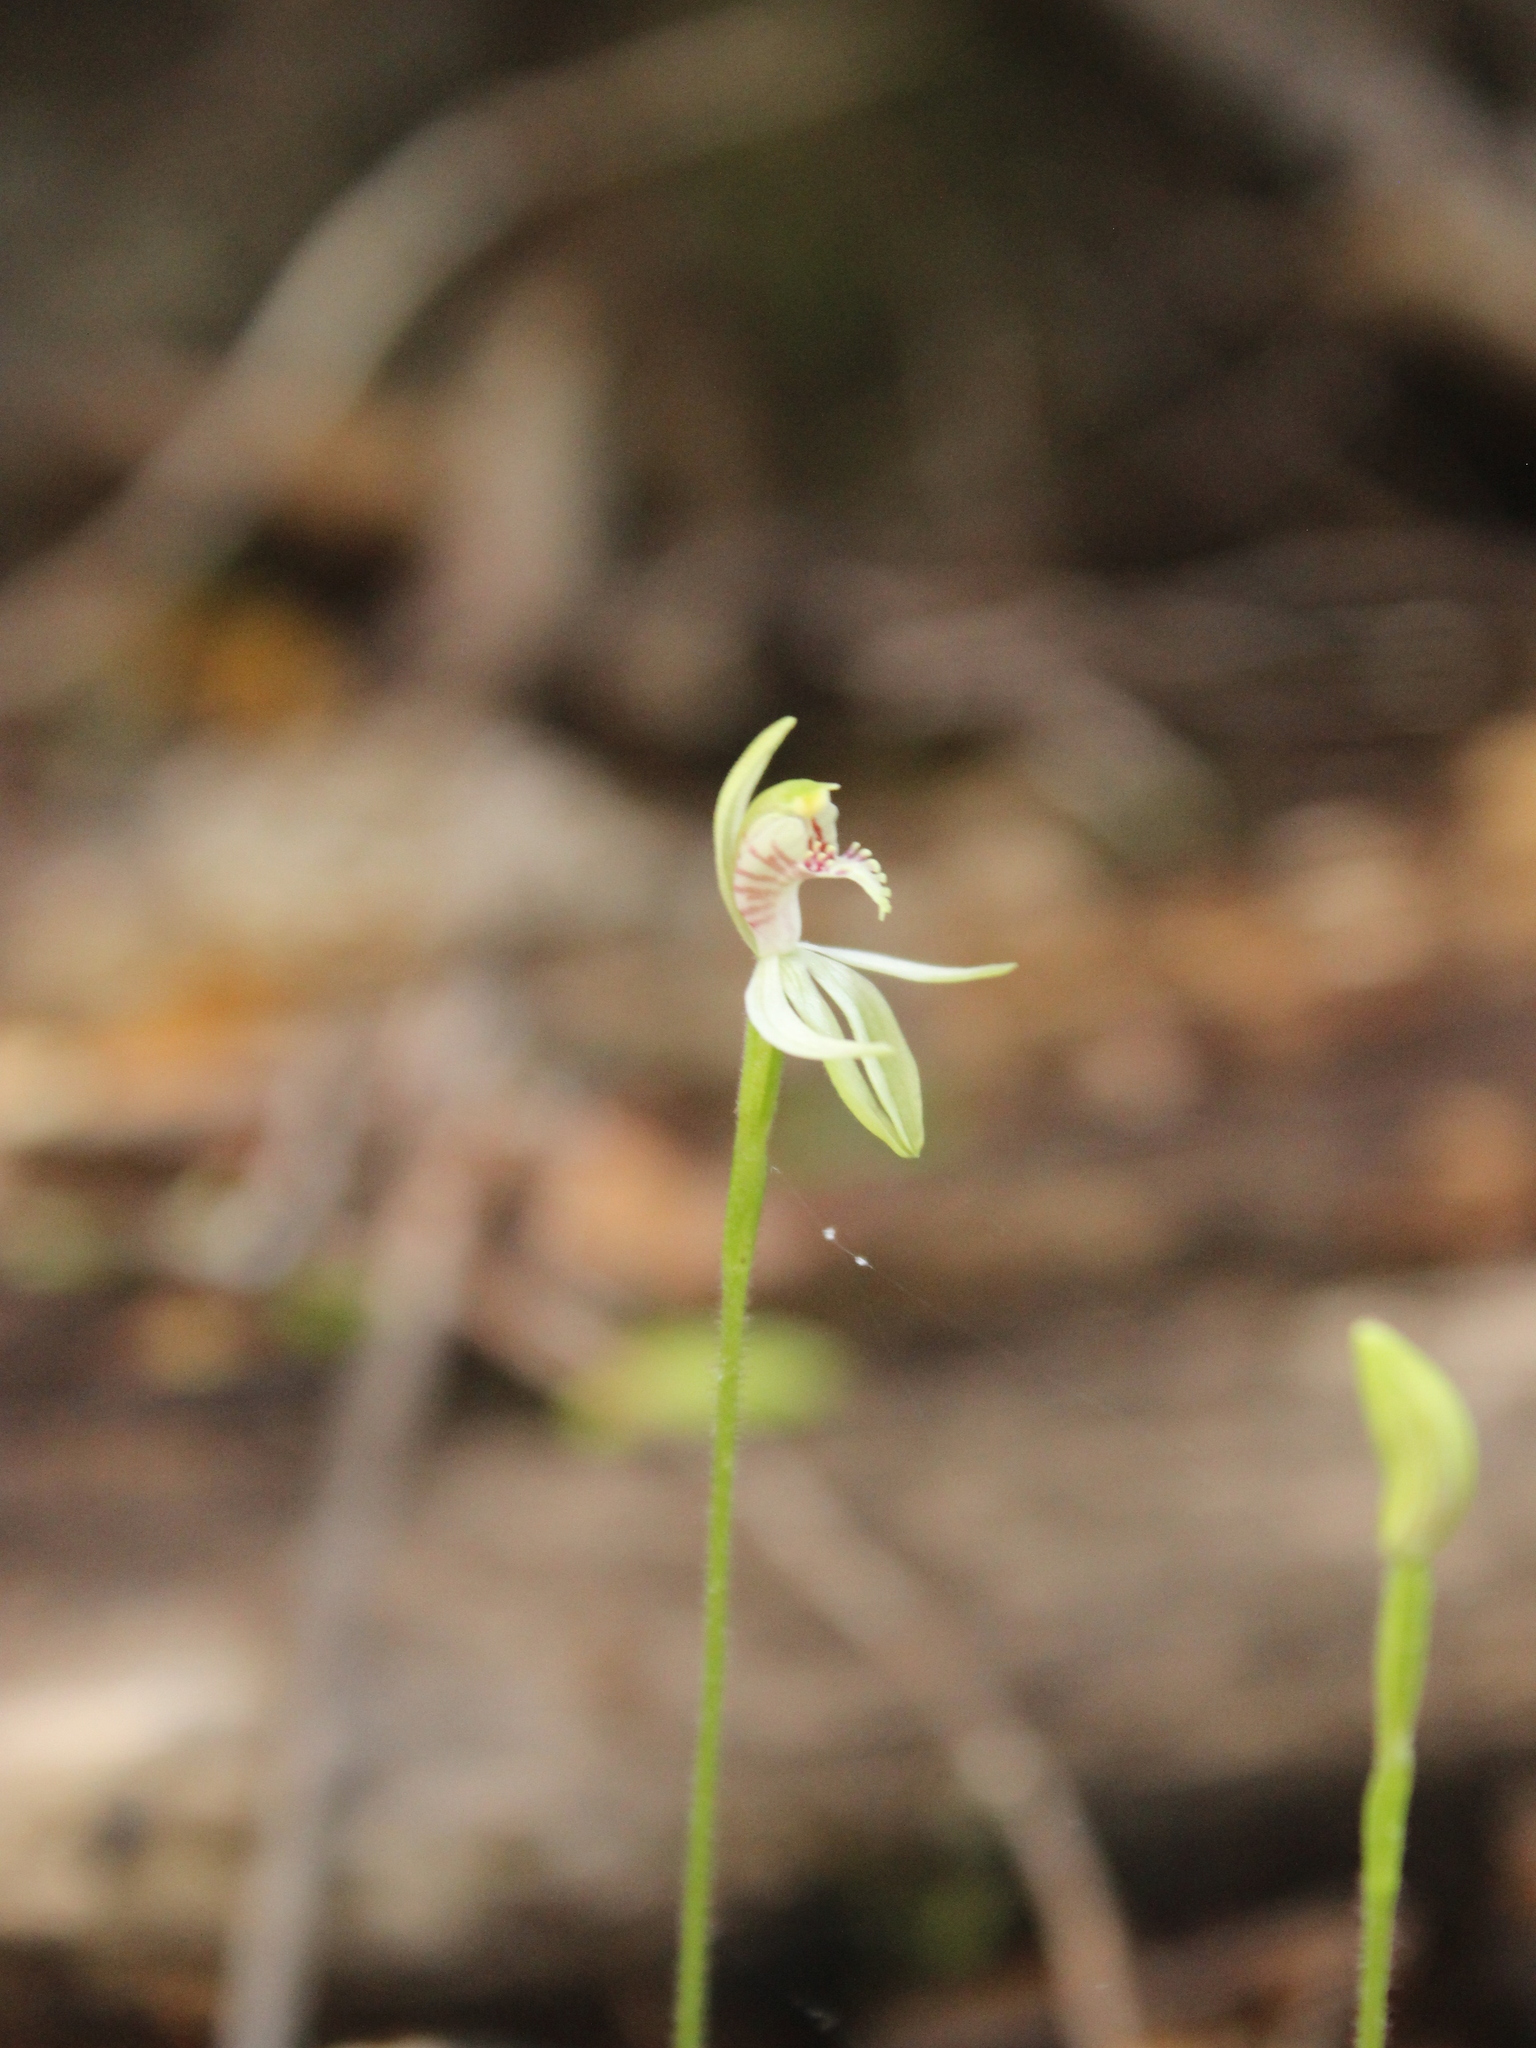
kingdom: Plantae
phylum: Tracheophyta
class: Liliopsida
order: Asparagales
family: Orchidaceae
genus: Caladenia
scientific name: Caladenia chlorostyla
